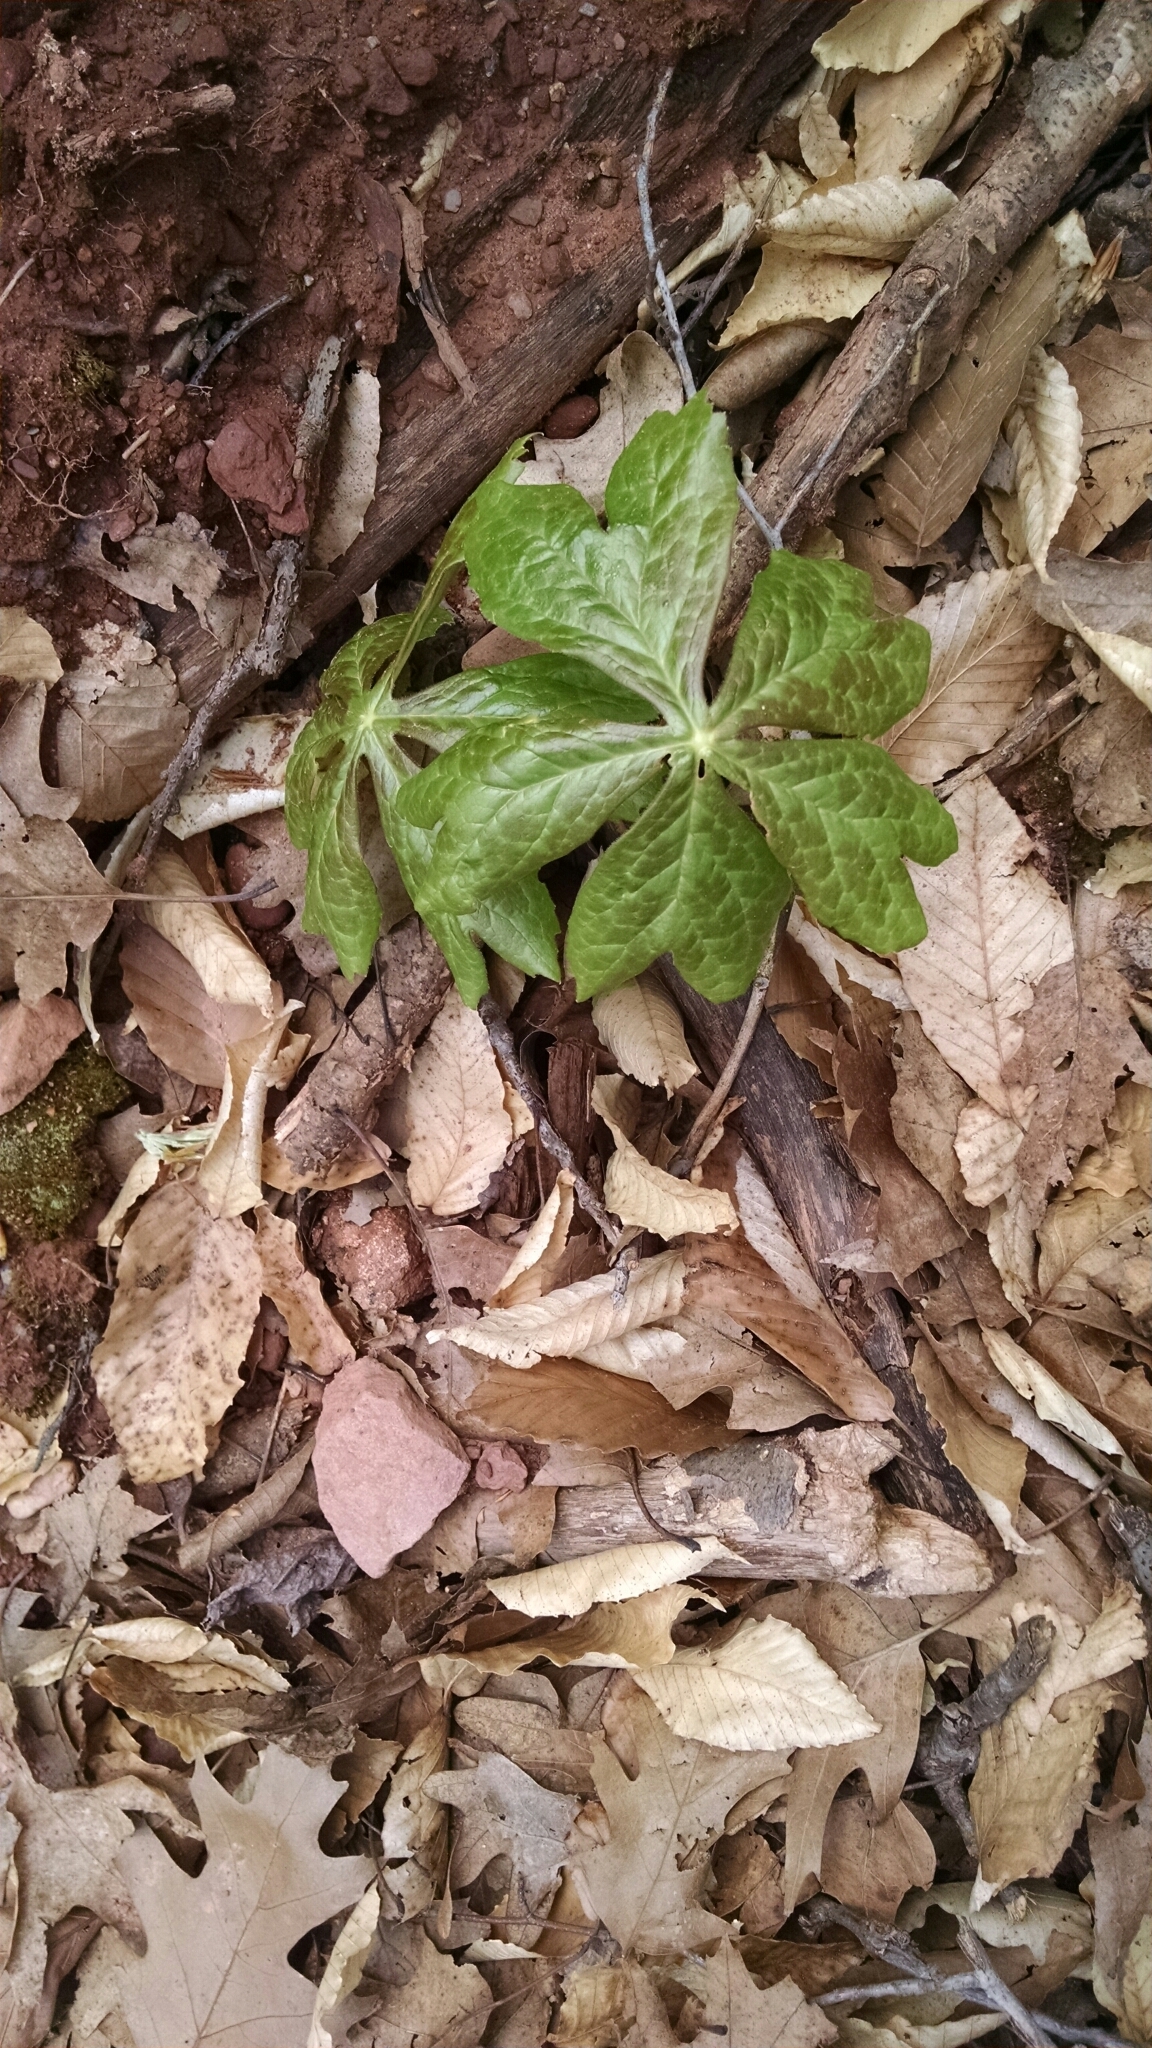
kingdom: Plantae
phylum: Tracheophyta
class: Magnoliopsida
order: Ranunculales
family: Berberidaceae
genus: Podophyllum
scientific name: Podophyllum peltatum
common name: Wild mandrake
